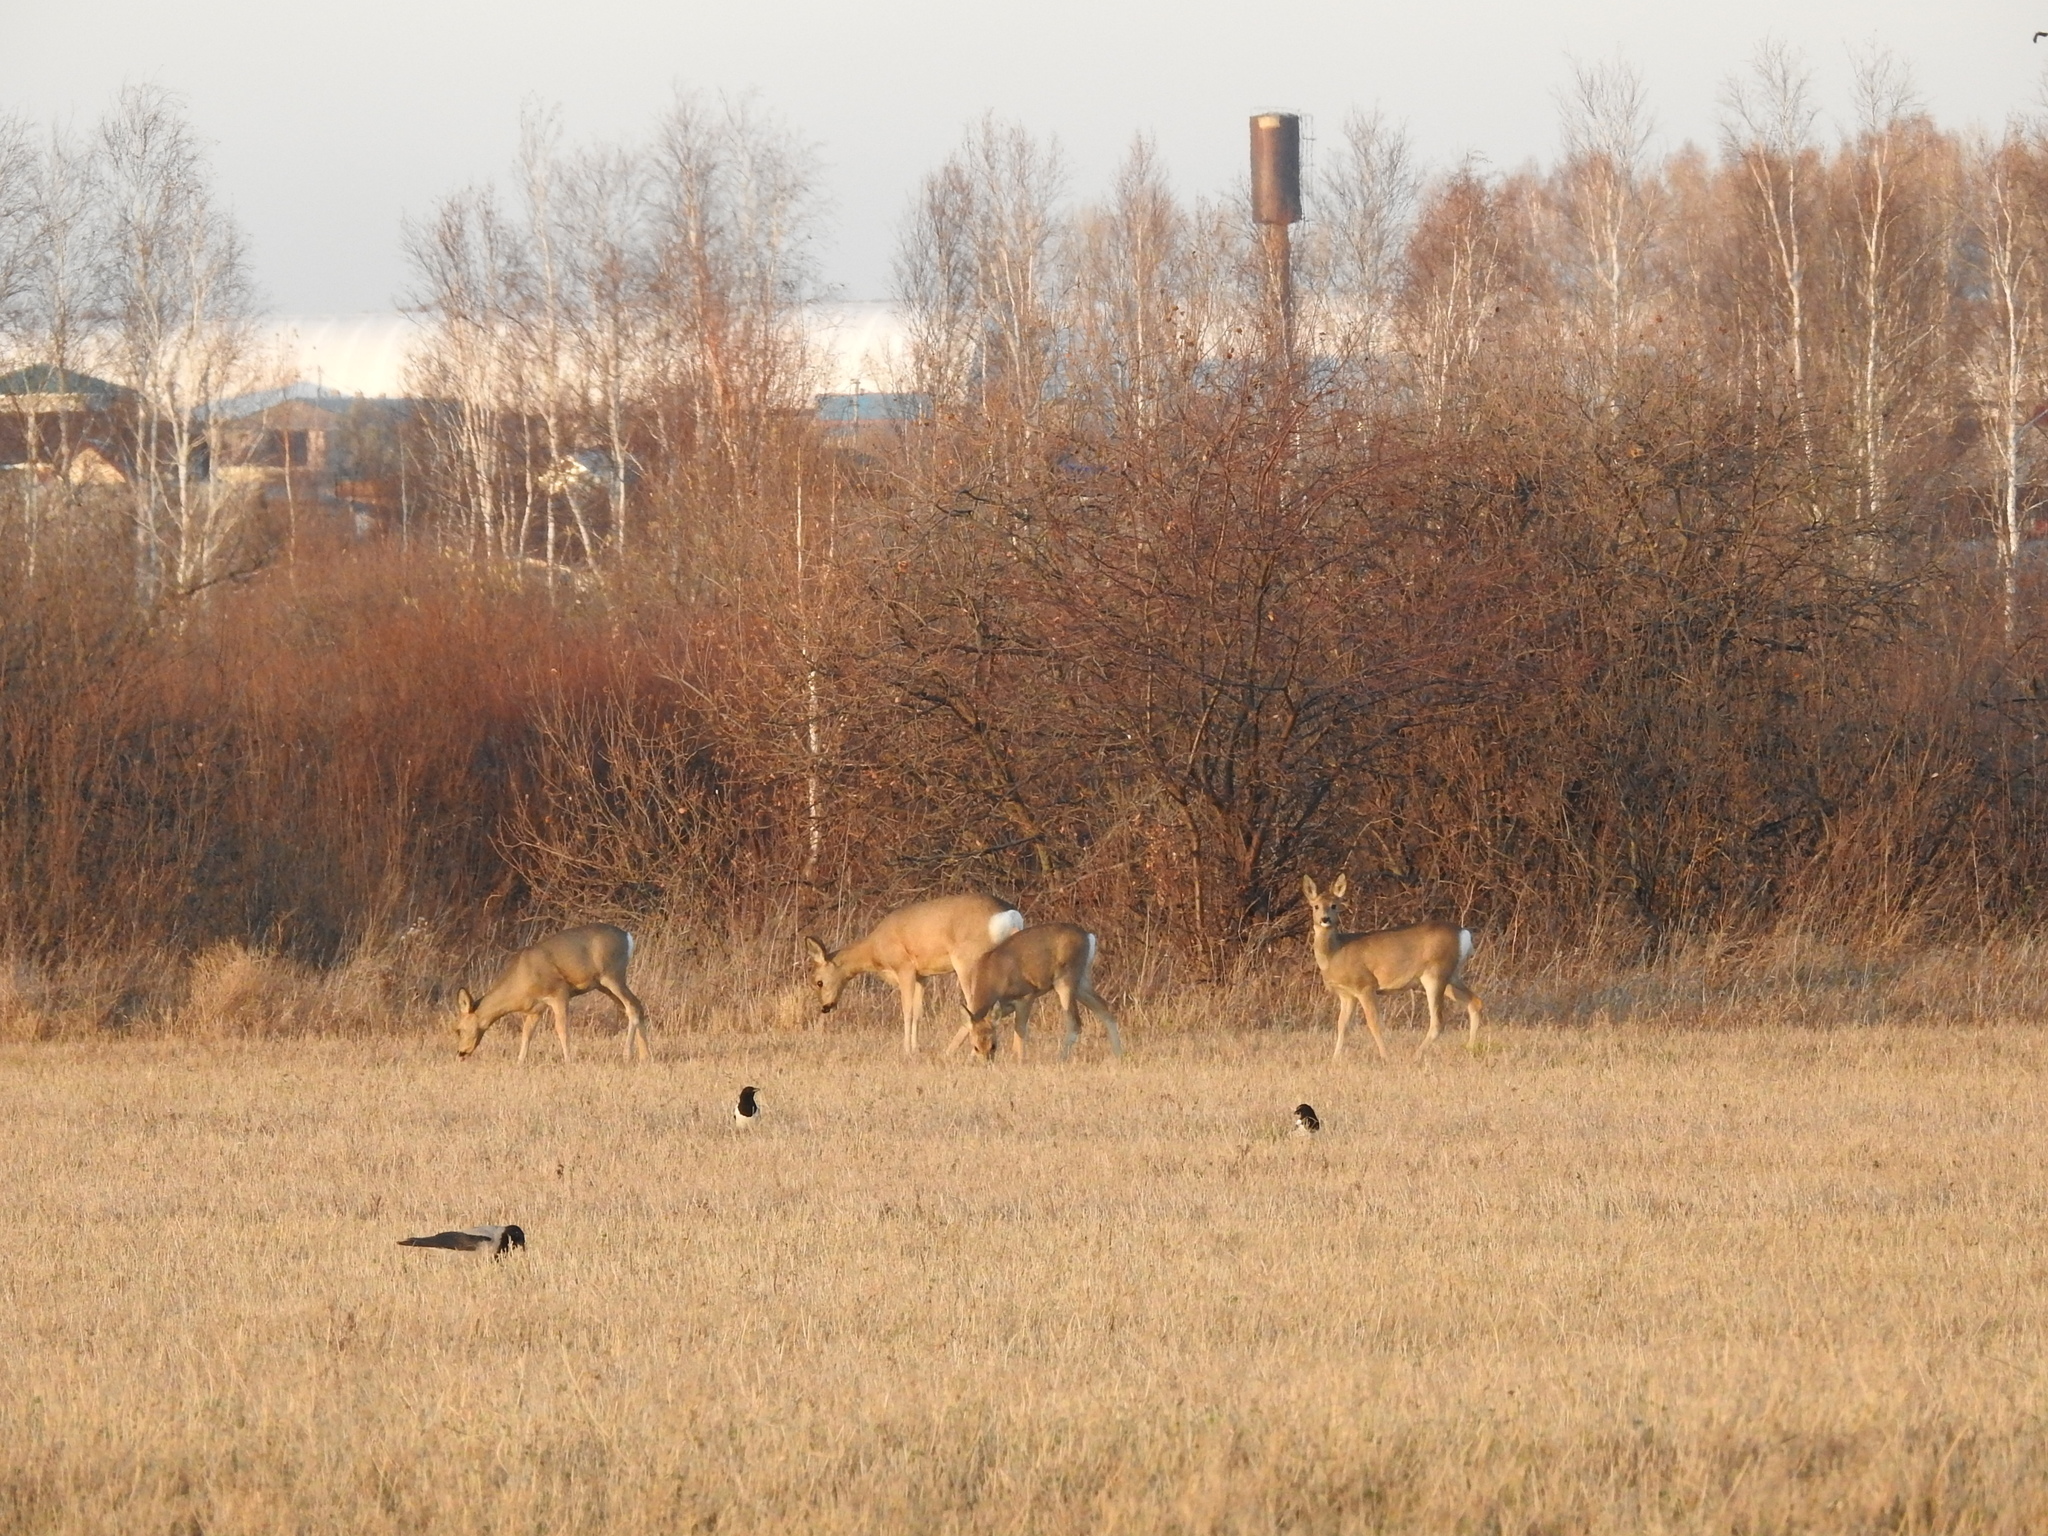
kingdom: Animalia
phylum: Chordata
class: Mammalia
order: Artiodactyla
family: Cervidae
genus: Capreolus
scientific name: Capreolus pygargus
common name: Siberian roe
